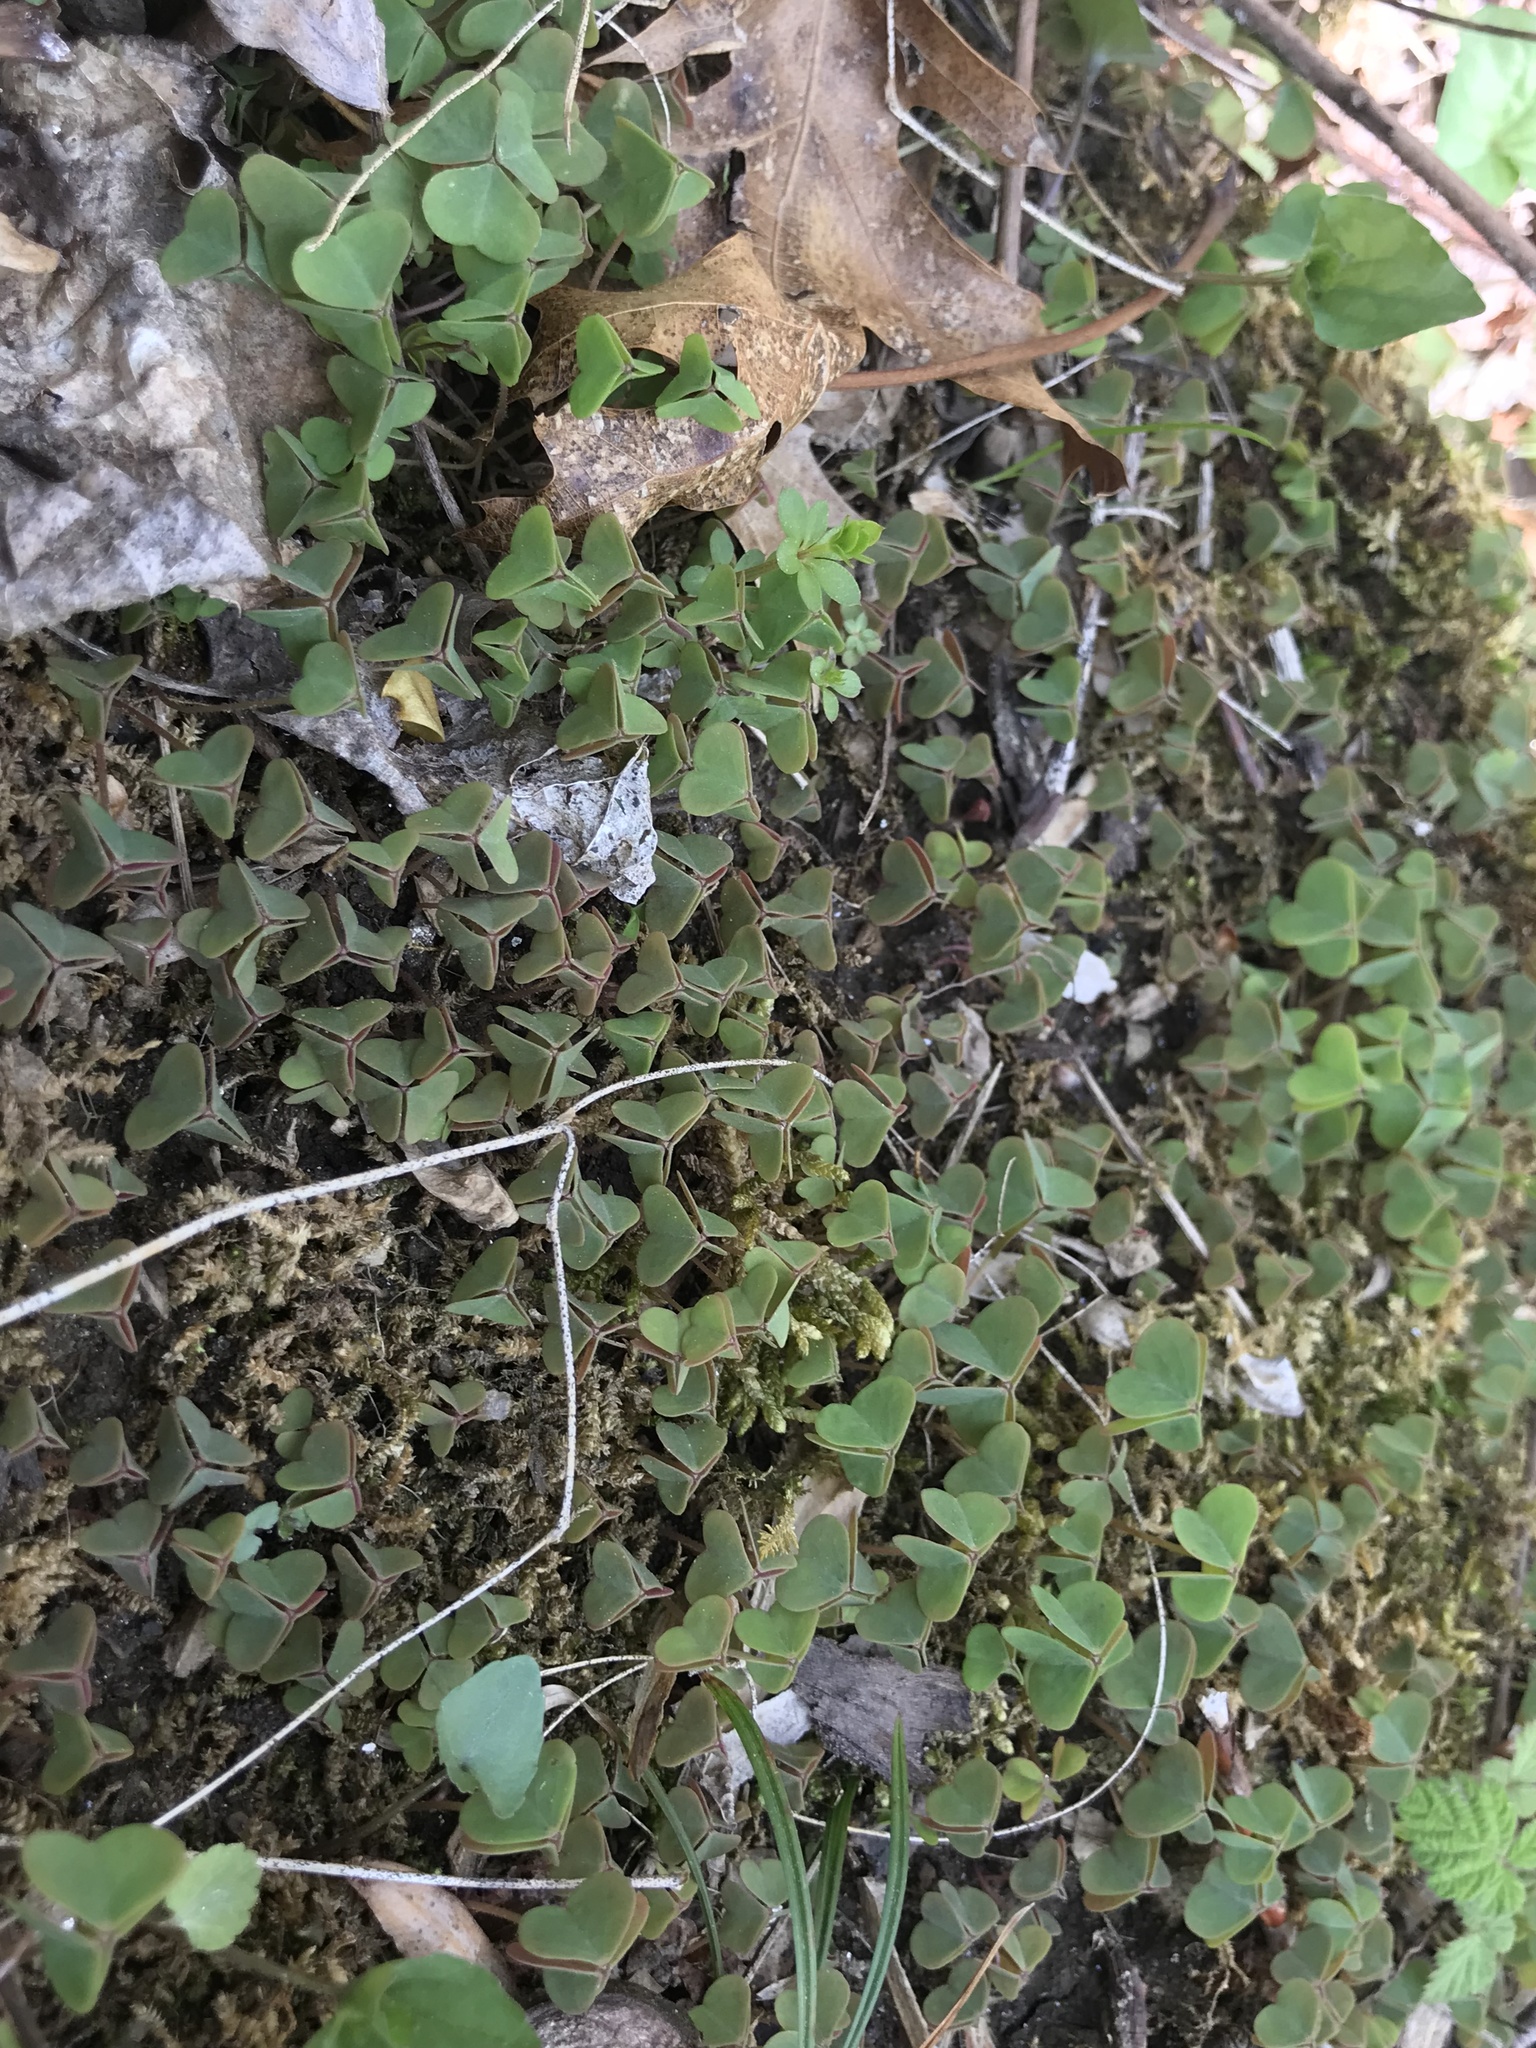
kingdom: Plantae
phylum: Tracheophyta
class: Magnoliopsida
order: Oxalidales
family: Oxalidaceae
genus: Oxalis
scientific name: Oxalis violacea
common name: Violet wood-sorrel
